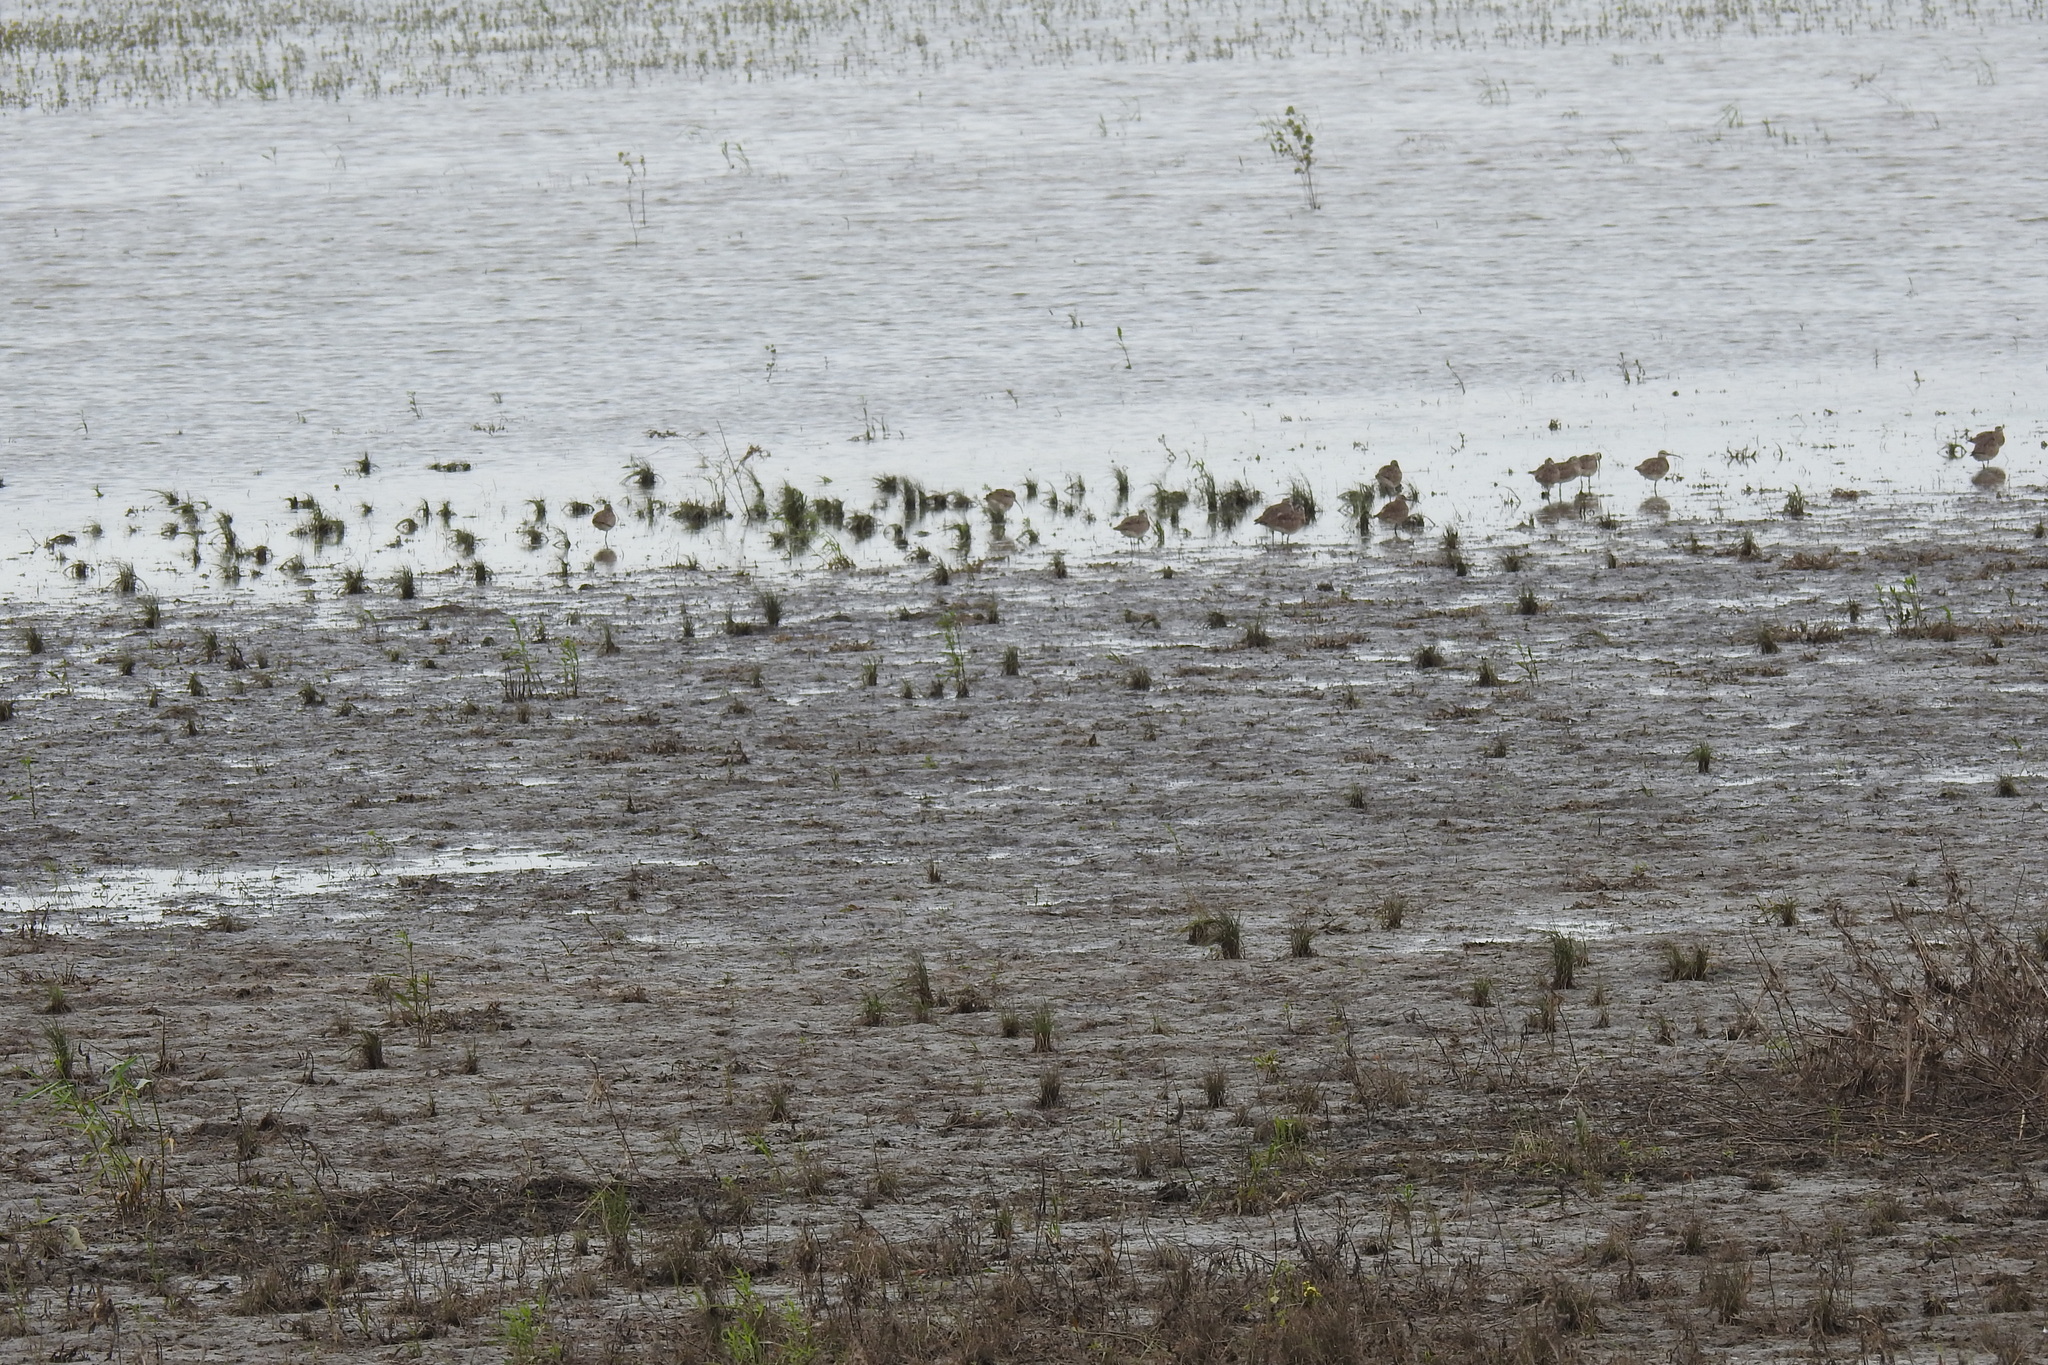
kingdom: Animalia
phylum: Chordata
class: Aves
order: Charadriiformes
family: Scolopacidae
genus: Numenius
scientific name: Numenius phaeopus
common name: Whimbrel
